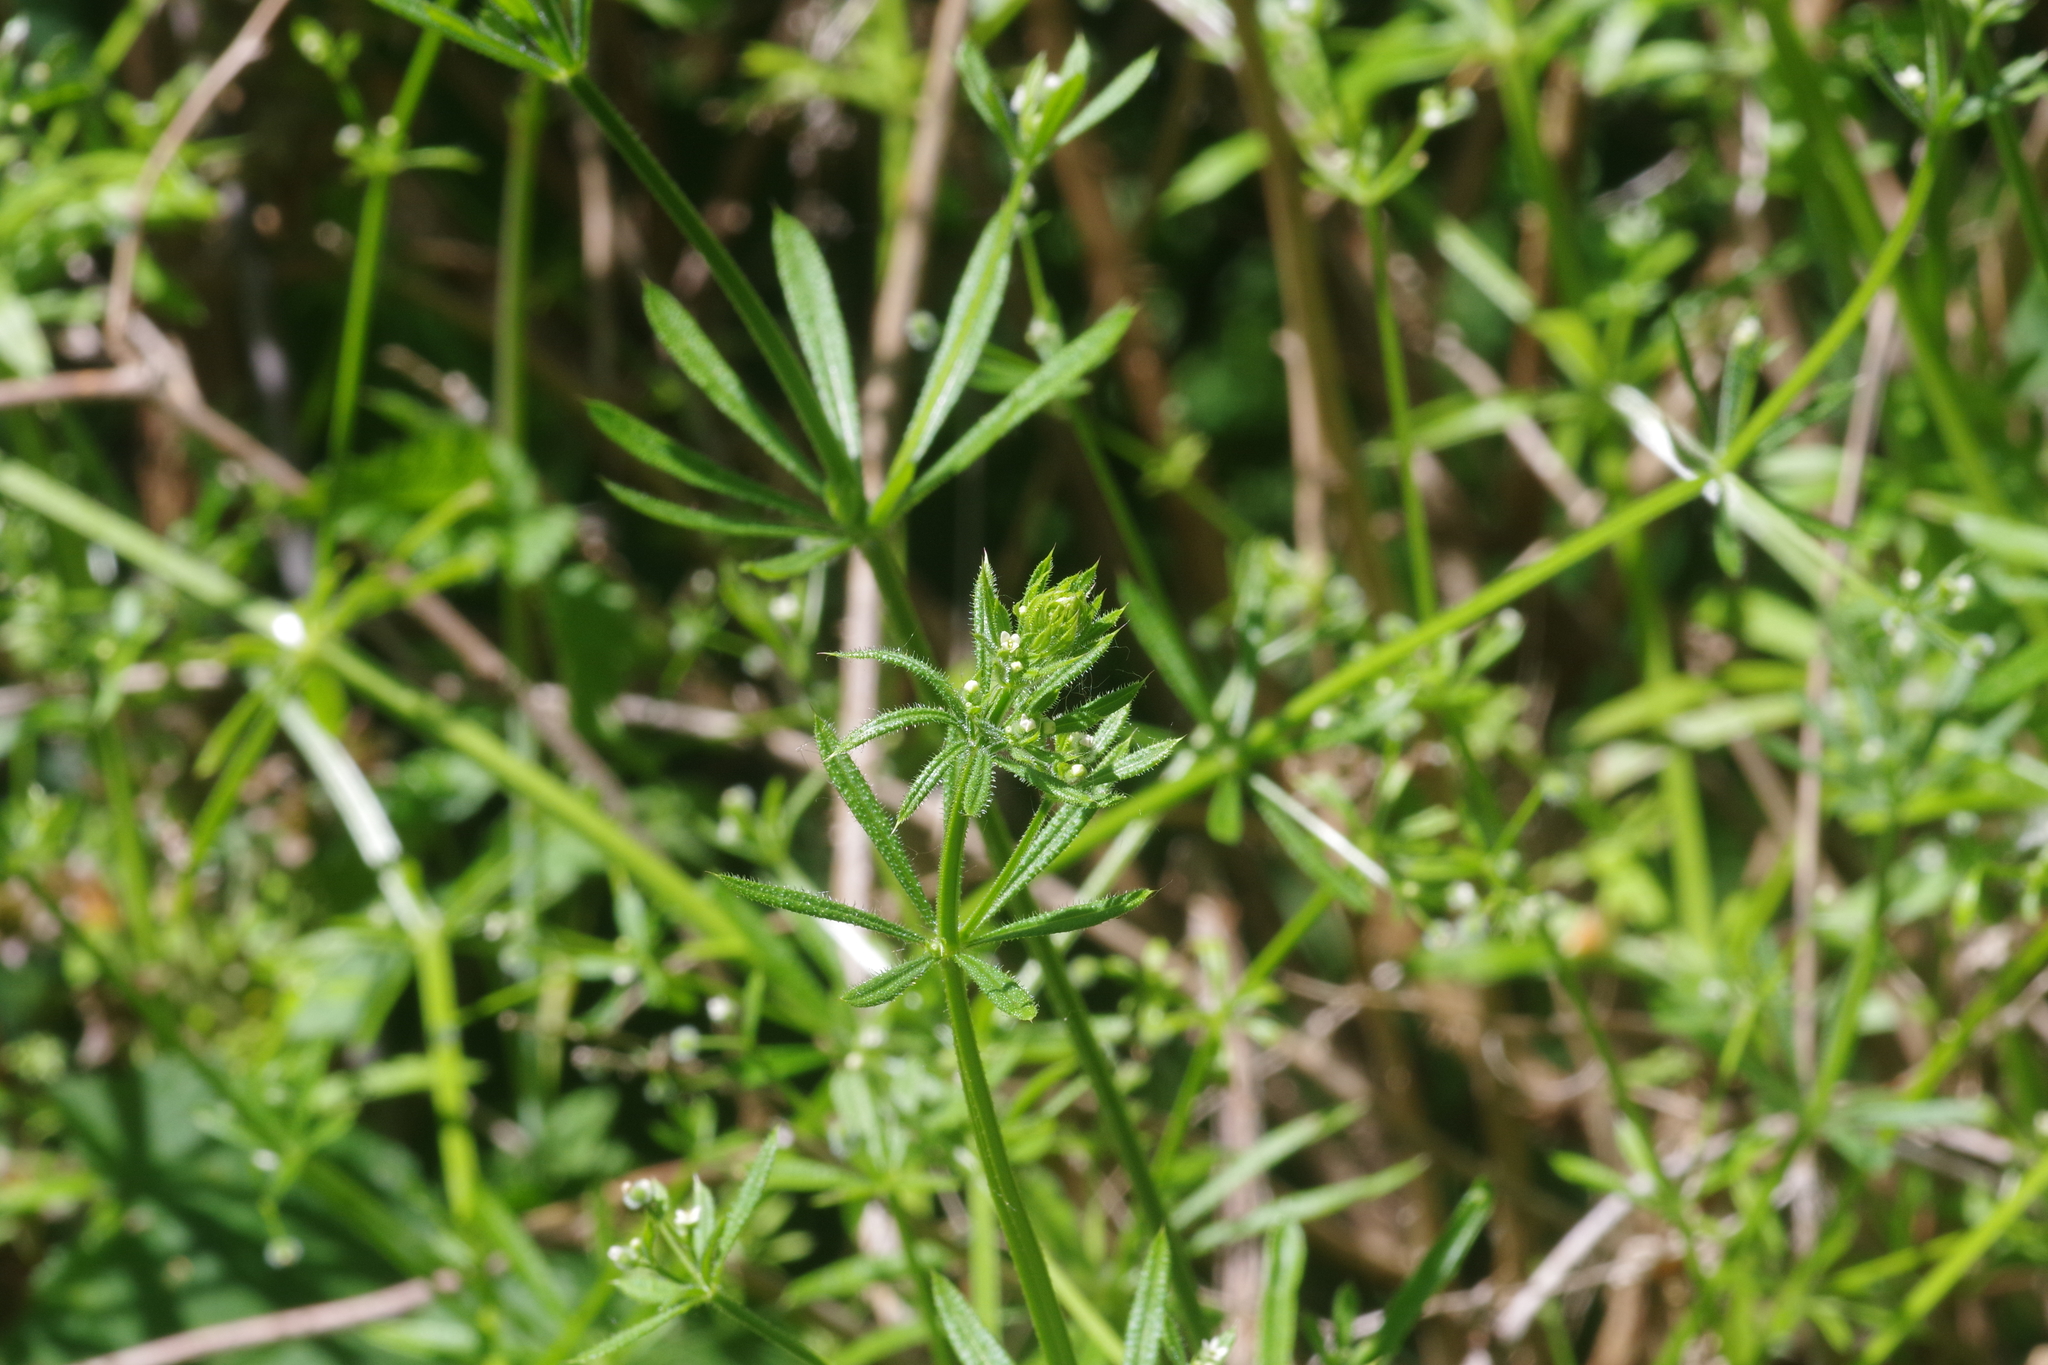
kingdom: Plantae
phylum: Tracheophyta
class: Magnoliopsida
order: Gentianales
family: Rubiaceae
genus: Galium
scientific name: Galium aparine
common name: Cleavers
